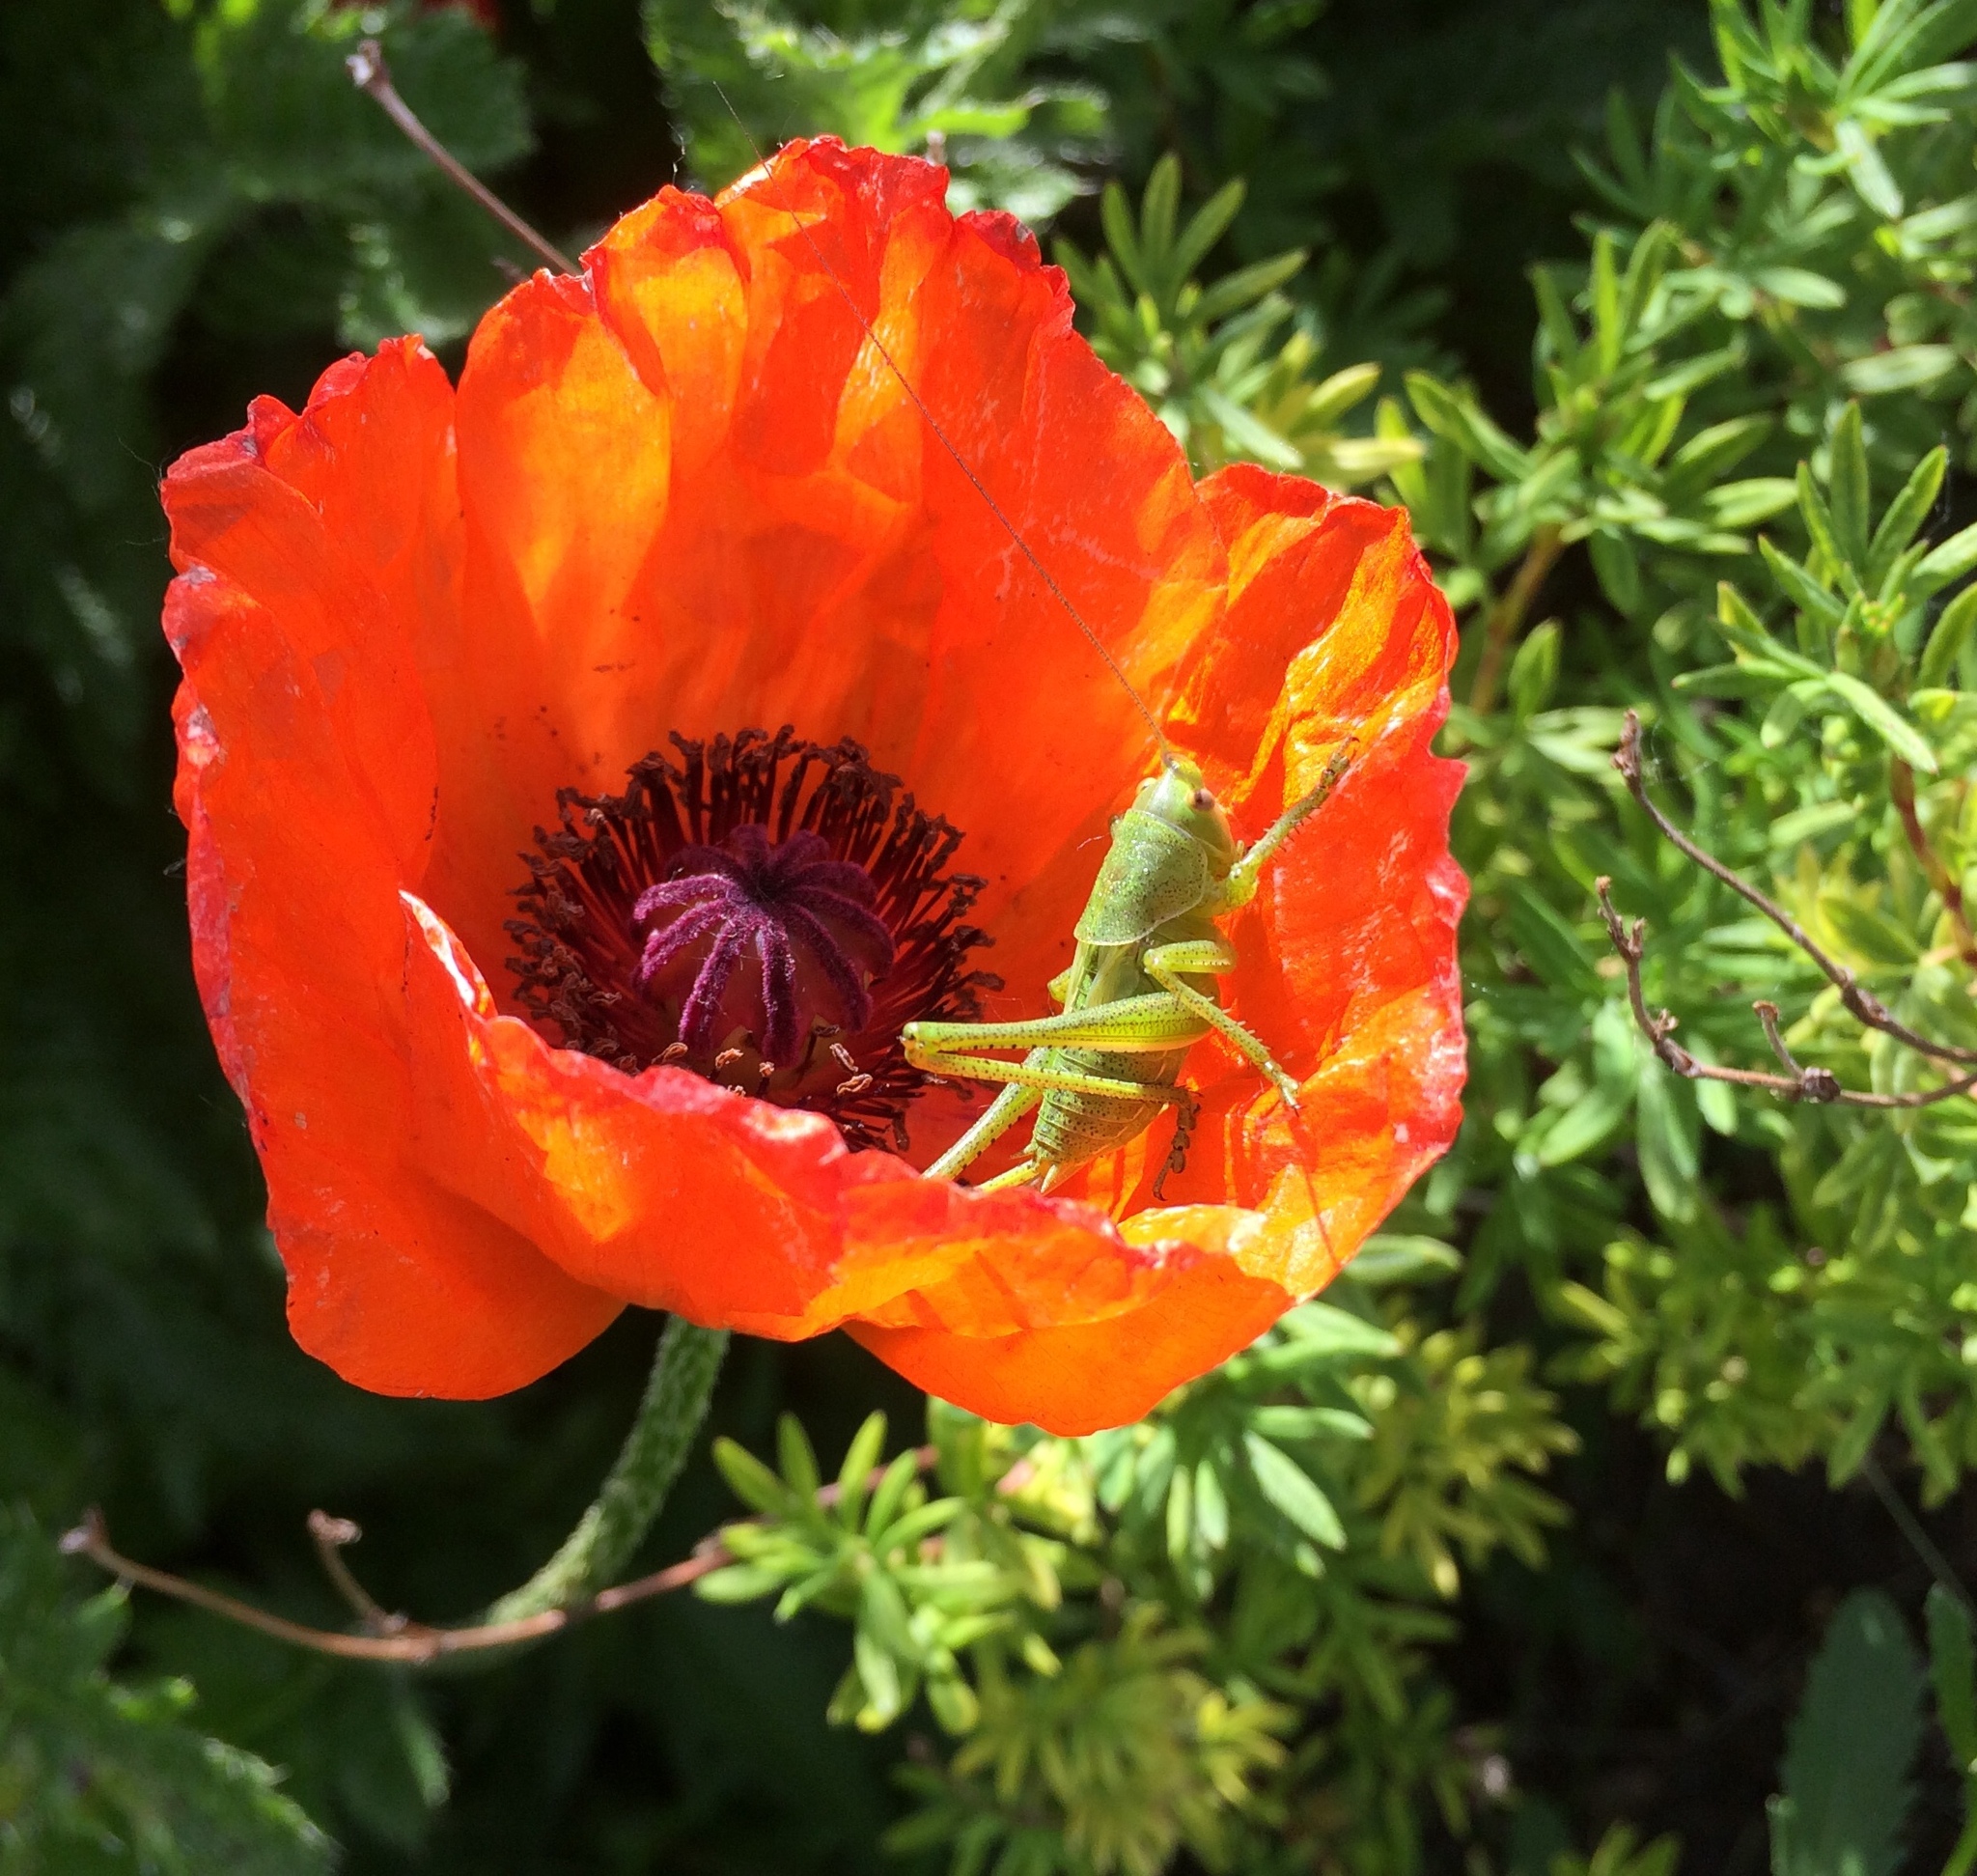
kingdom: Animalia
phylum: Arthropoda
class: Insecta
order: Orthoptera
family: Tettigoniidae
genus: Tettigonia
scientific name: Tettigonia viridissima
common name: Great green bush-cricket
